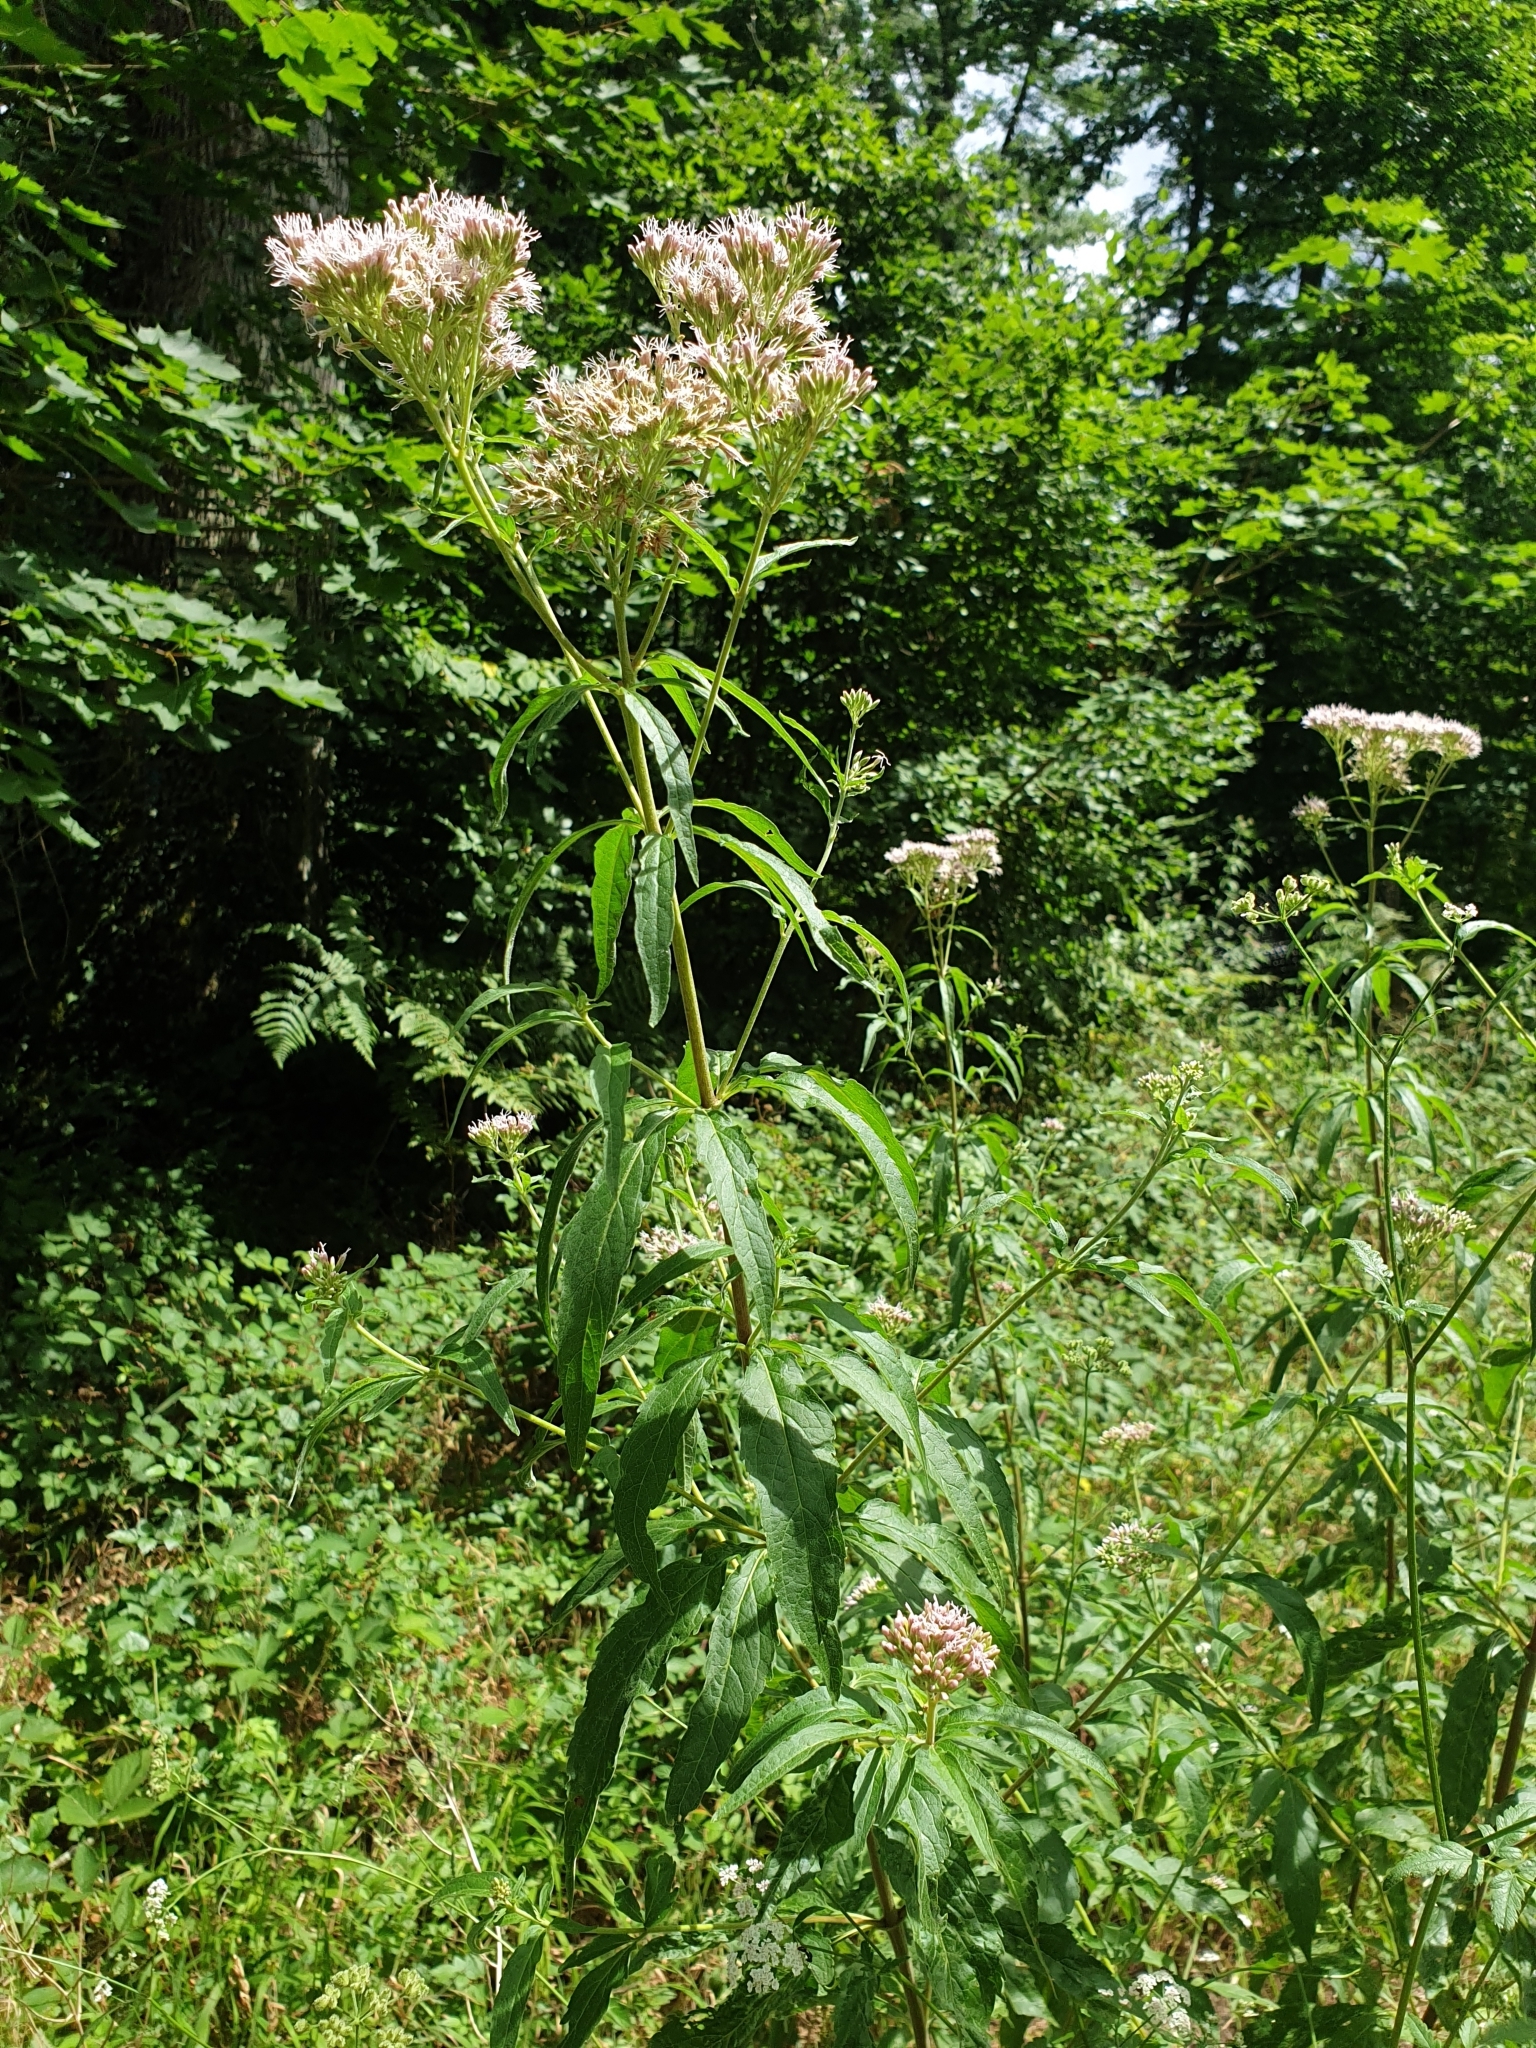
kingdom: Plantae
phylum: Tracheophyta
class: Magnoliopsida
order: Asterales
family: Asteraceae
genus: Eupatorium
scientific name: Eupatorium cannabinum
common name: Hemp-agrimony
